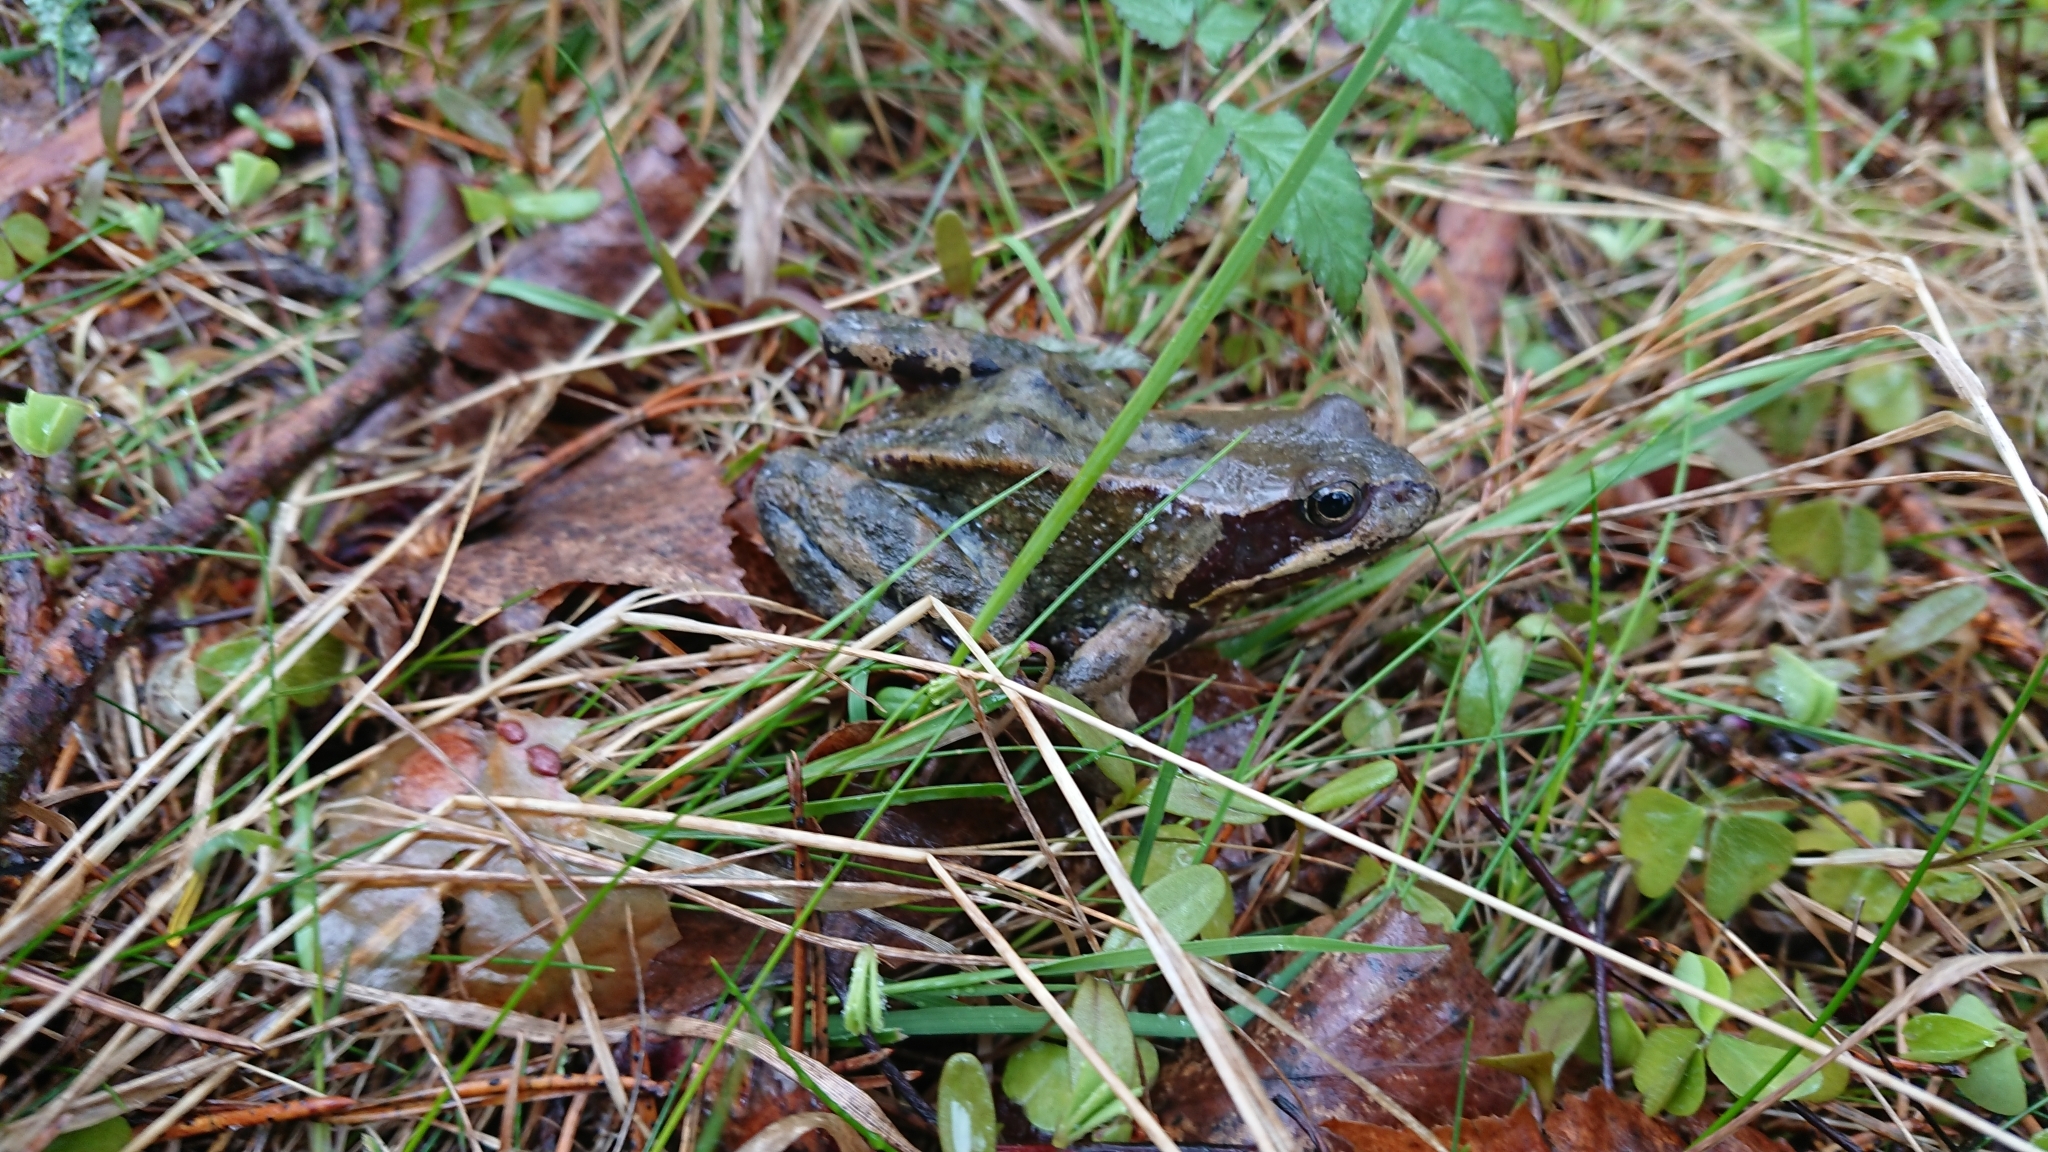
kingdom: Animalia
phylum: Chordata
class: Amphibia
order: Anura
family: Ranidae
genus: Rana
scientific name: Rana temporaria
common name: Common frog
